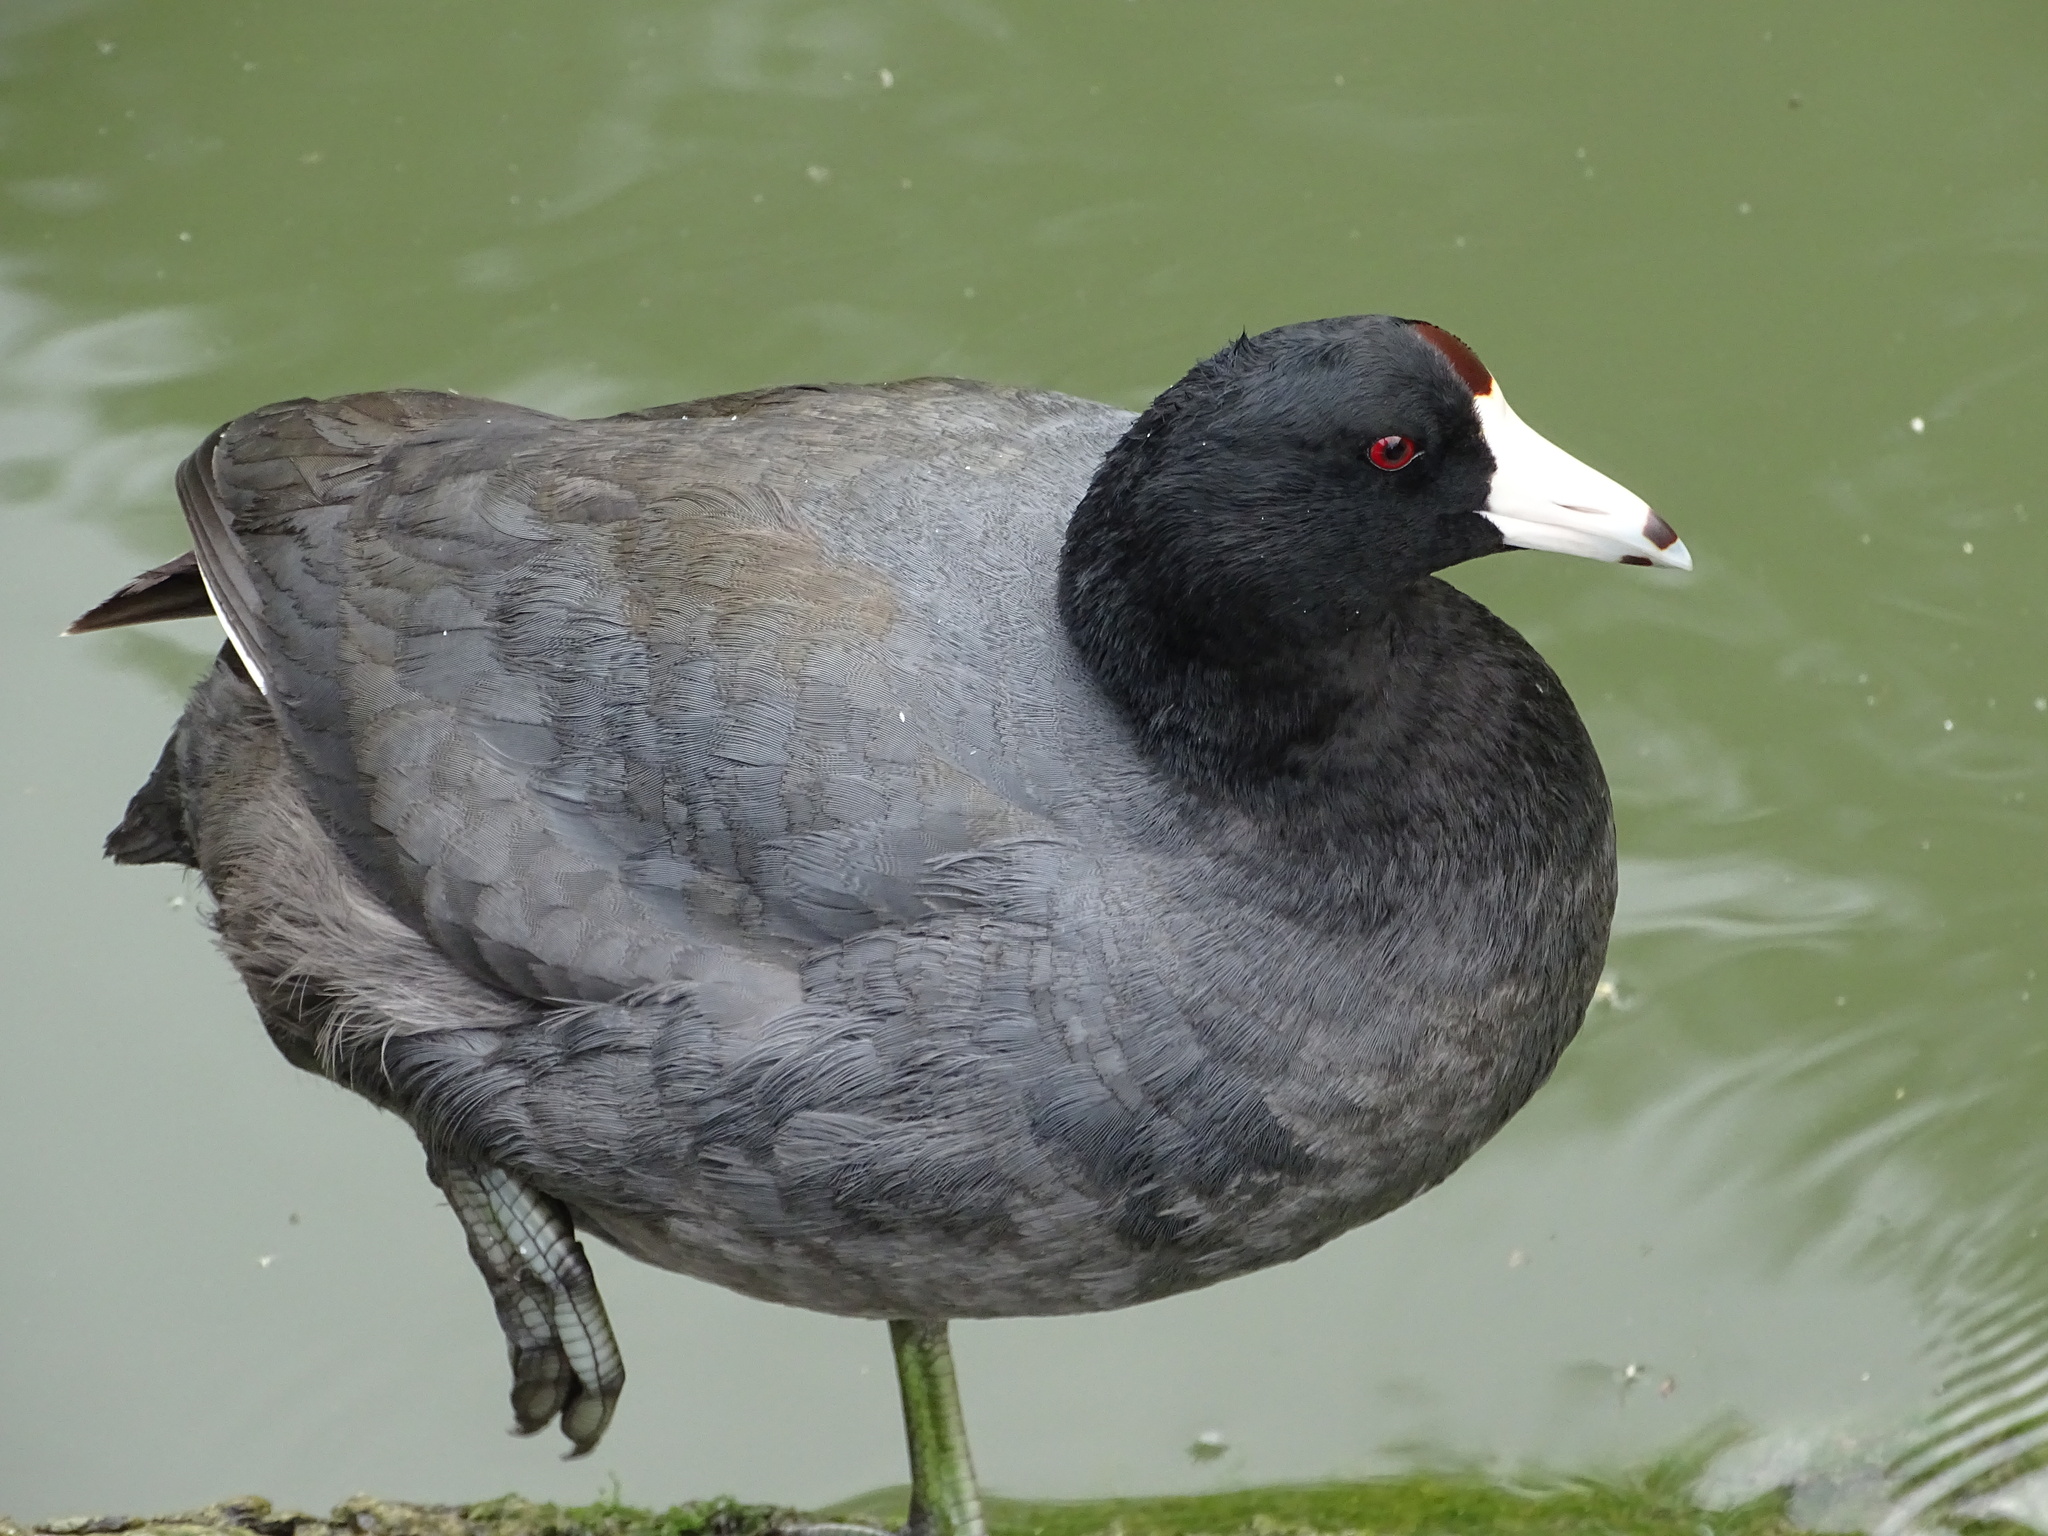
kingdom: Animalia
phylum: Chordata
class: Aves
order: Gruiformes
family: Rallidae
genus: Fulica
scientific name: Fulica americana
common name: American coot
